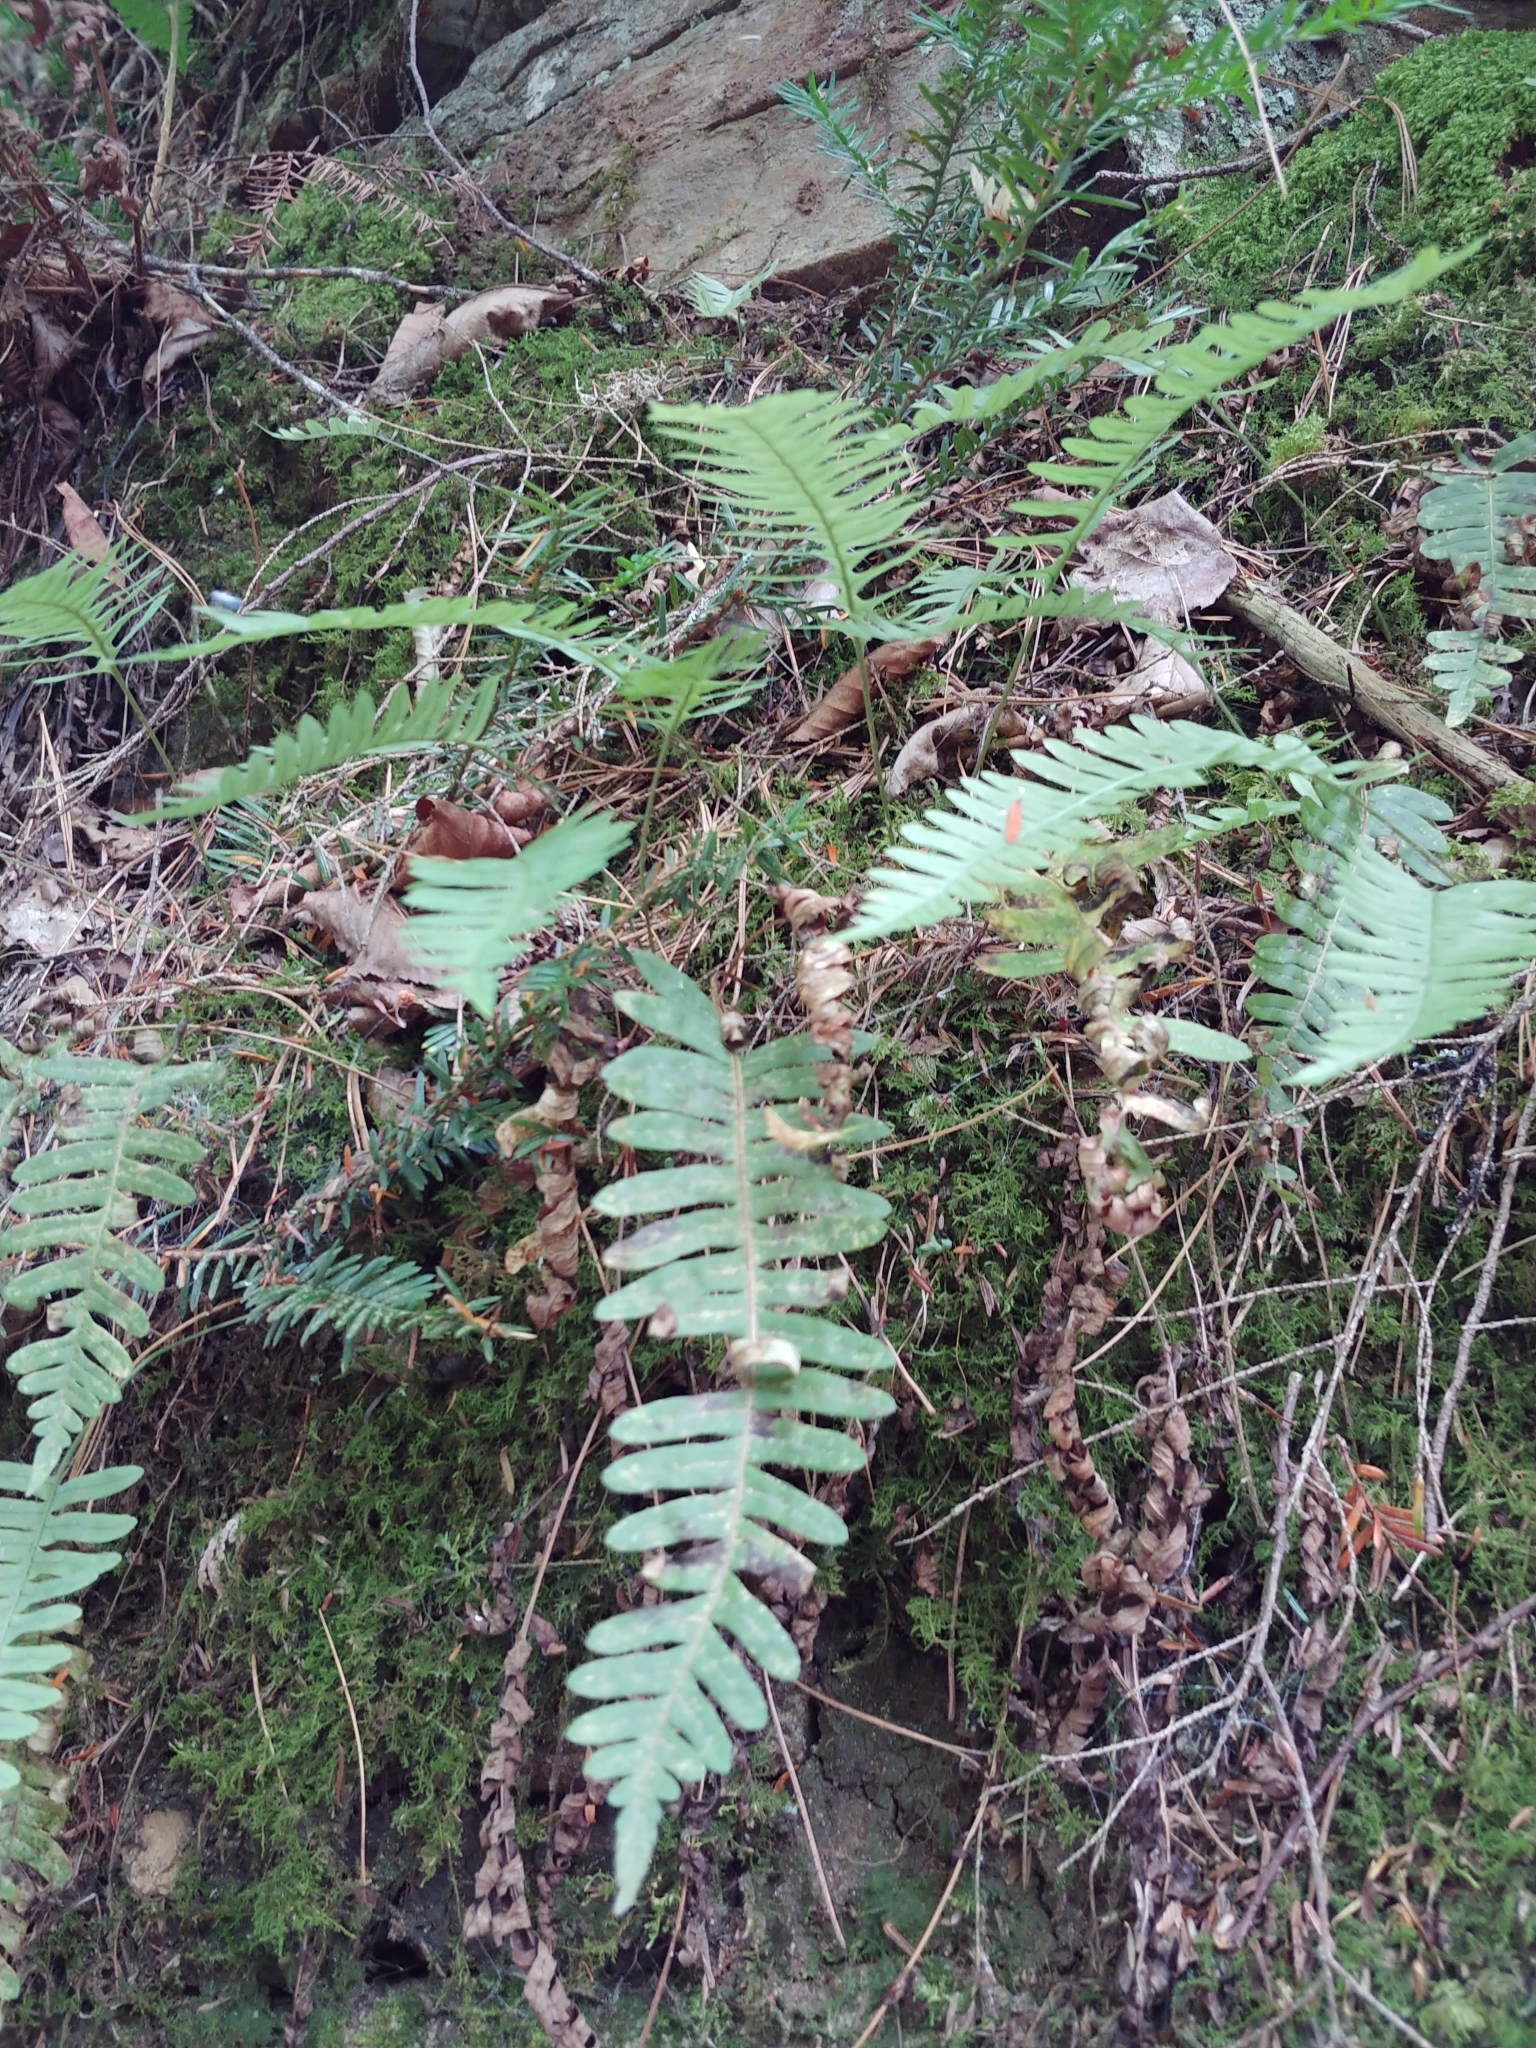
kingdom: Plantae
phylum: Tracheophyta
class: Polypodiopsida
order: Polypodiales
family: Polypodiaceae
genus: Polypodium
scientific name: Polypodium virginianum
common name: American wall fern
